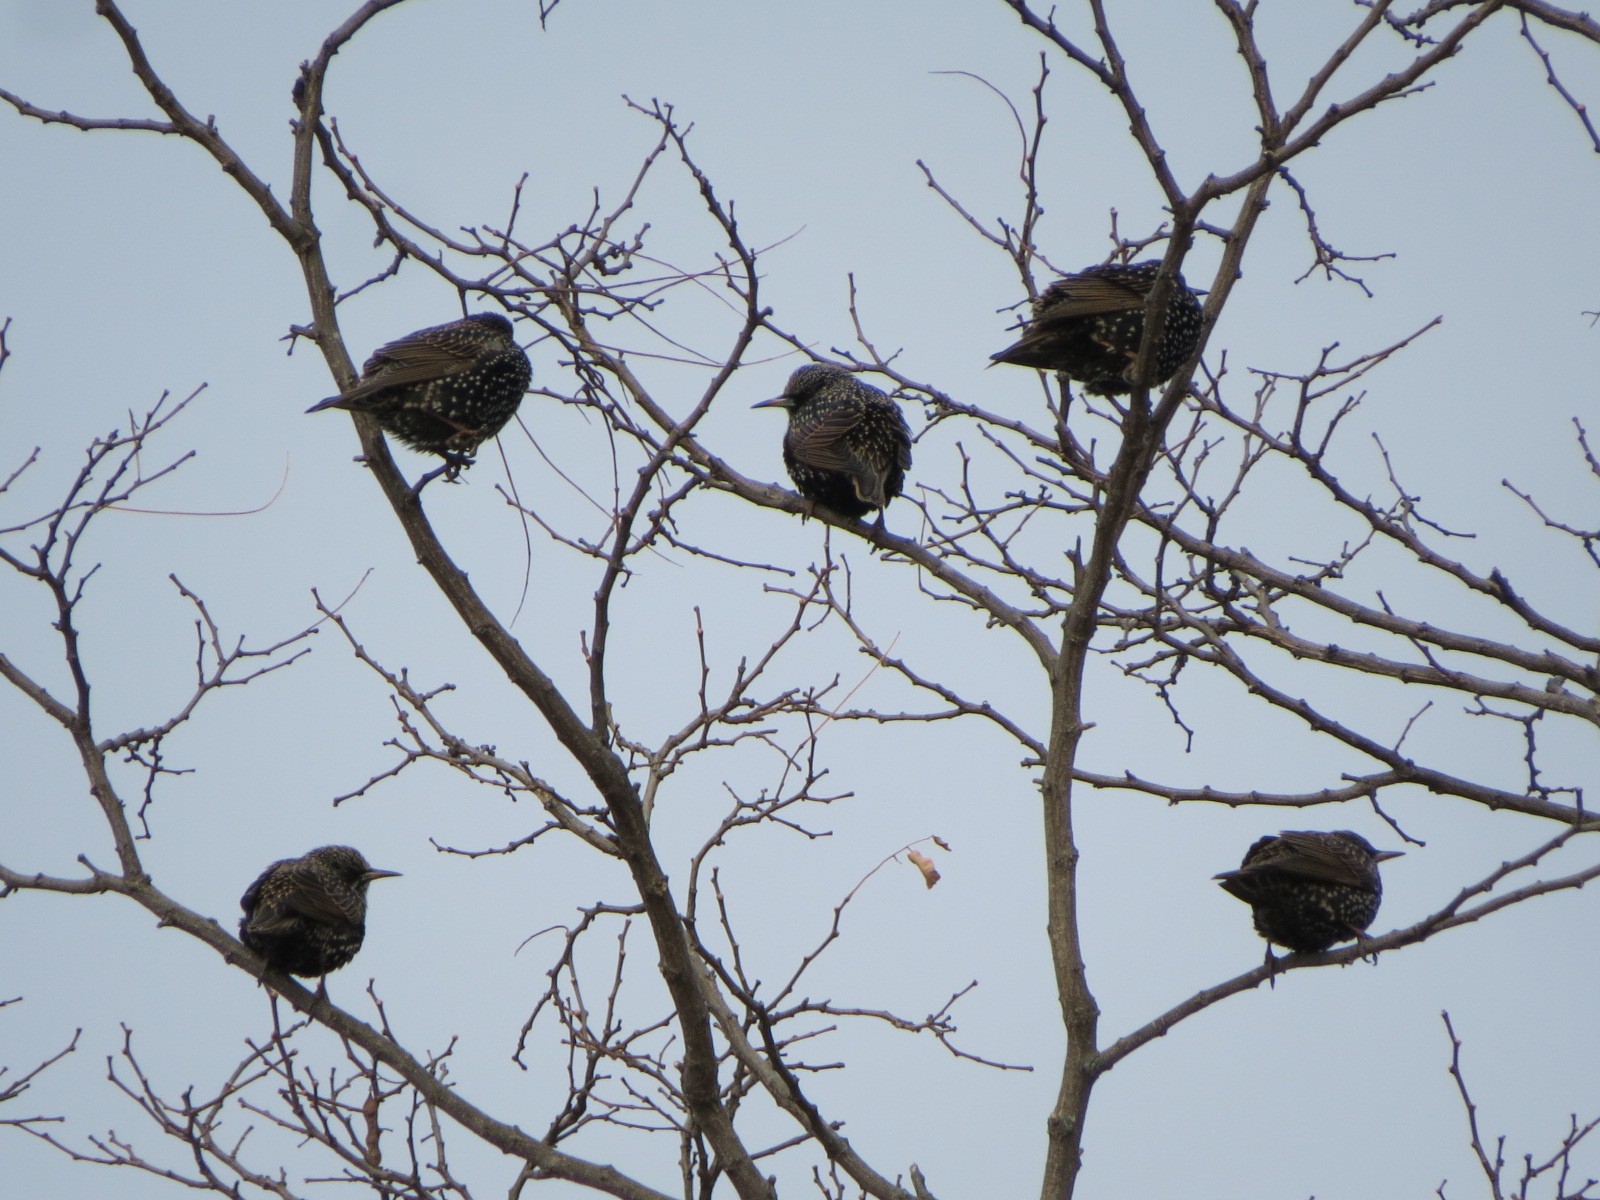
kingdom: Animalia
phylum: Chordata
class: Aves
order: Passeriformes
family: Sturnidae
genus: Sturnus
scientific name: Sturnus vulgaris
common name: Common starling
